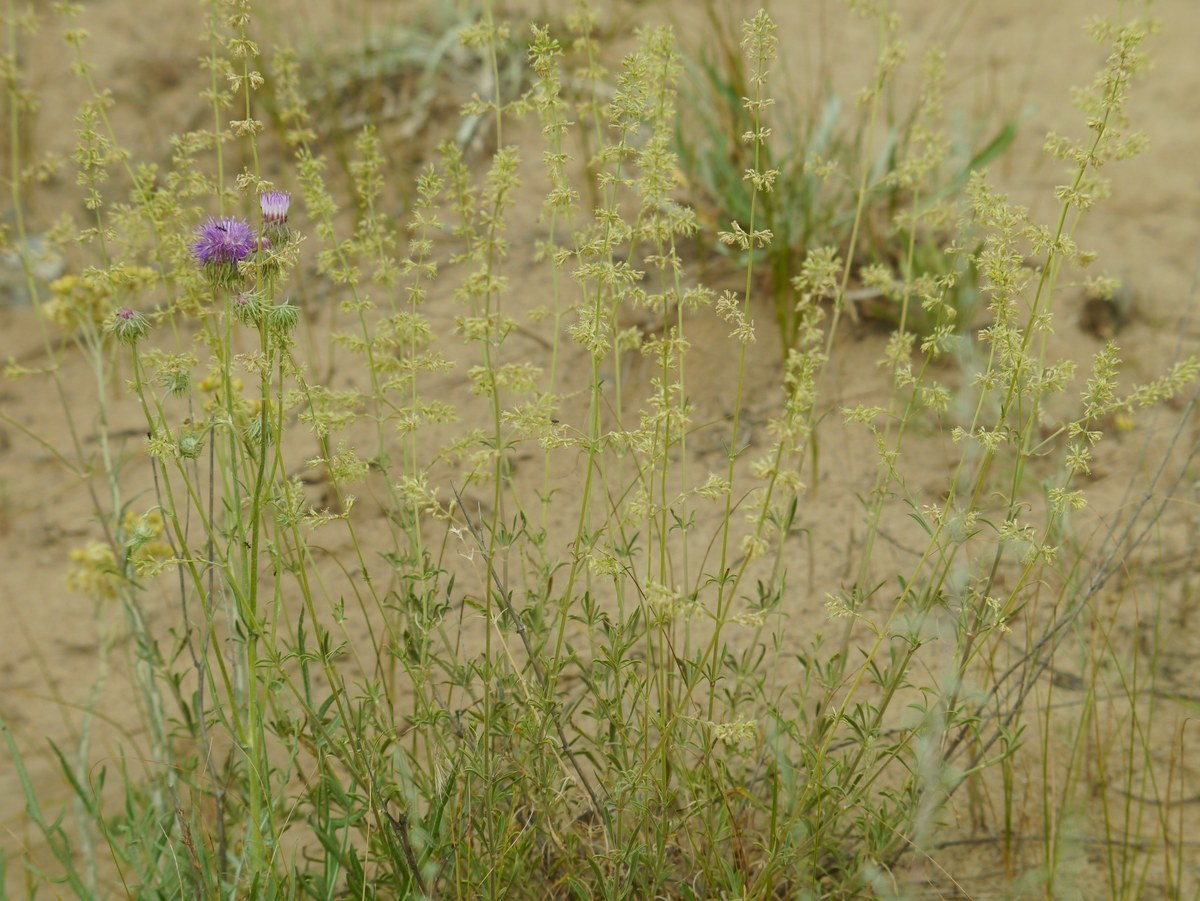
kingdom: Plantae
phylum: Tracheophyta
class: Magnoliopsida
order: Caryophyllales
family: Caryophyllaceae
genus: Silene
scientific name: Silene borysthenica
